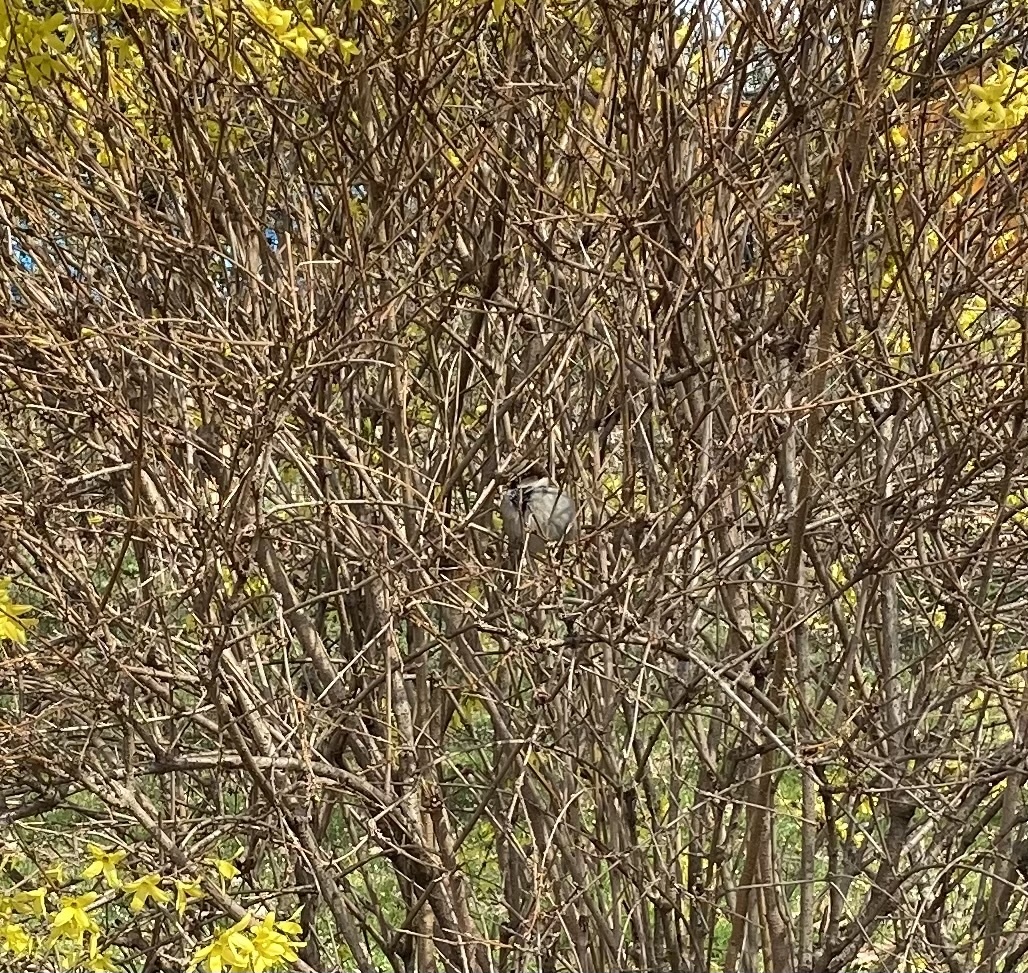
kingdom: Animalia
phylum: Chordata
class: Aves
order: Passeriformes
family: Passeridae
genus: Passer
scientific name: Passer domesticus
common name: House sparrow
